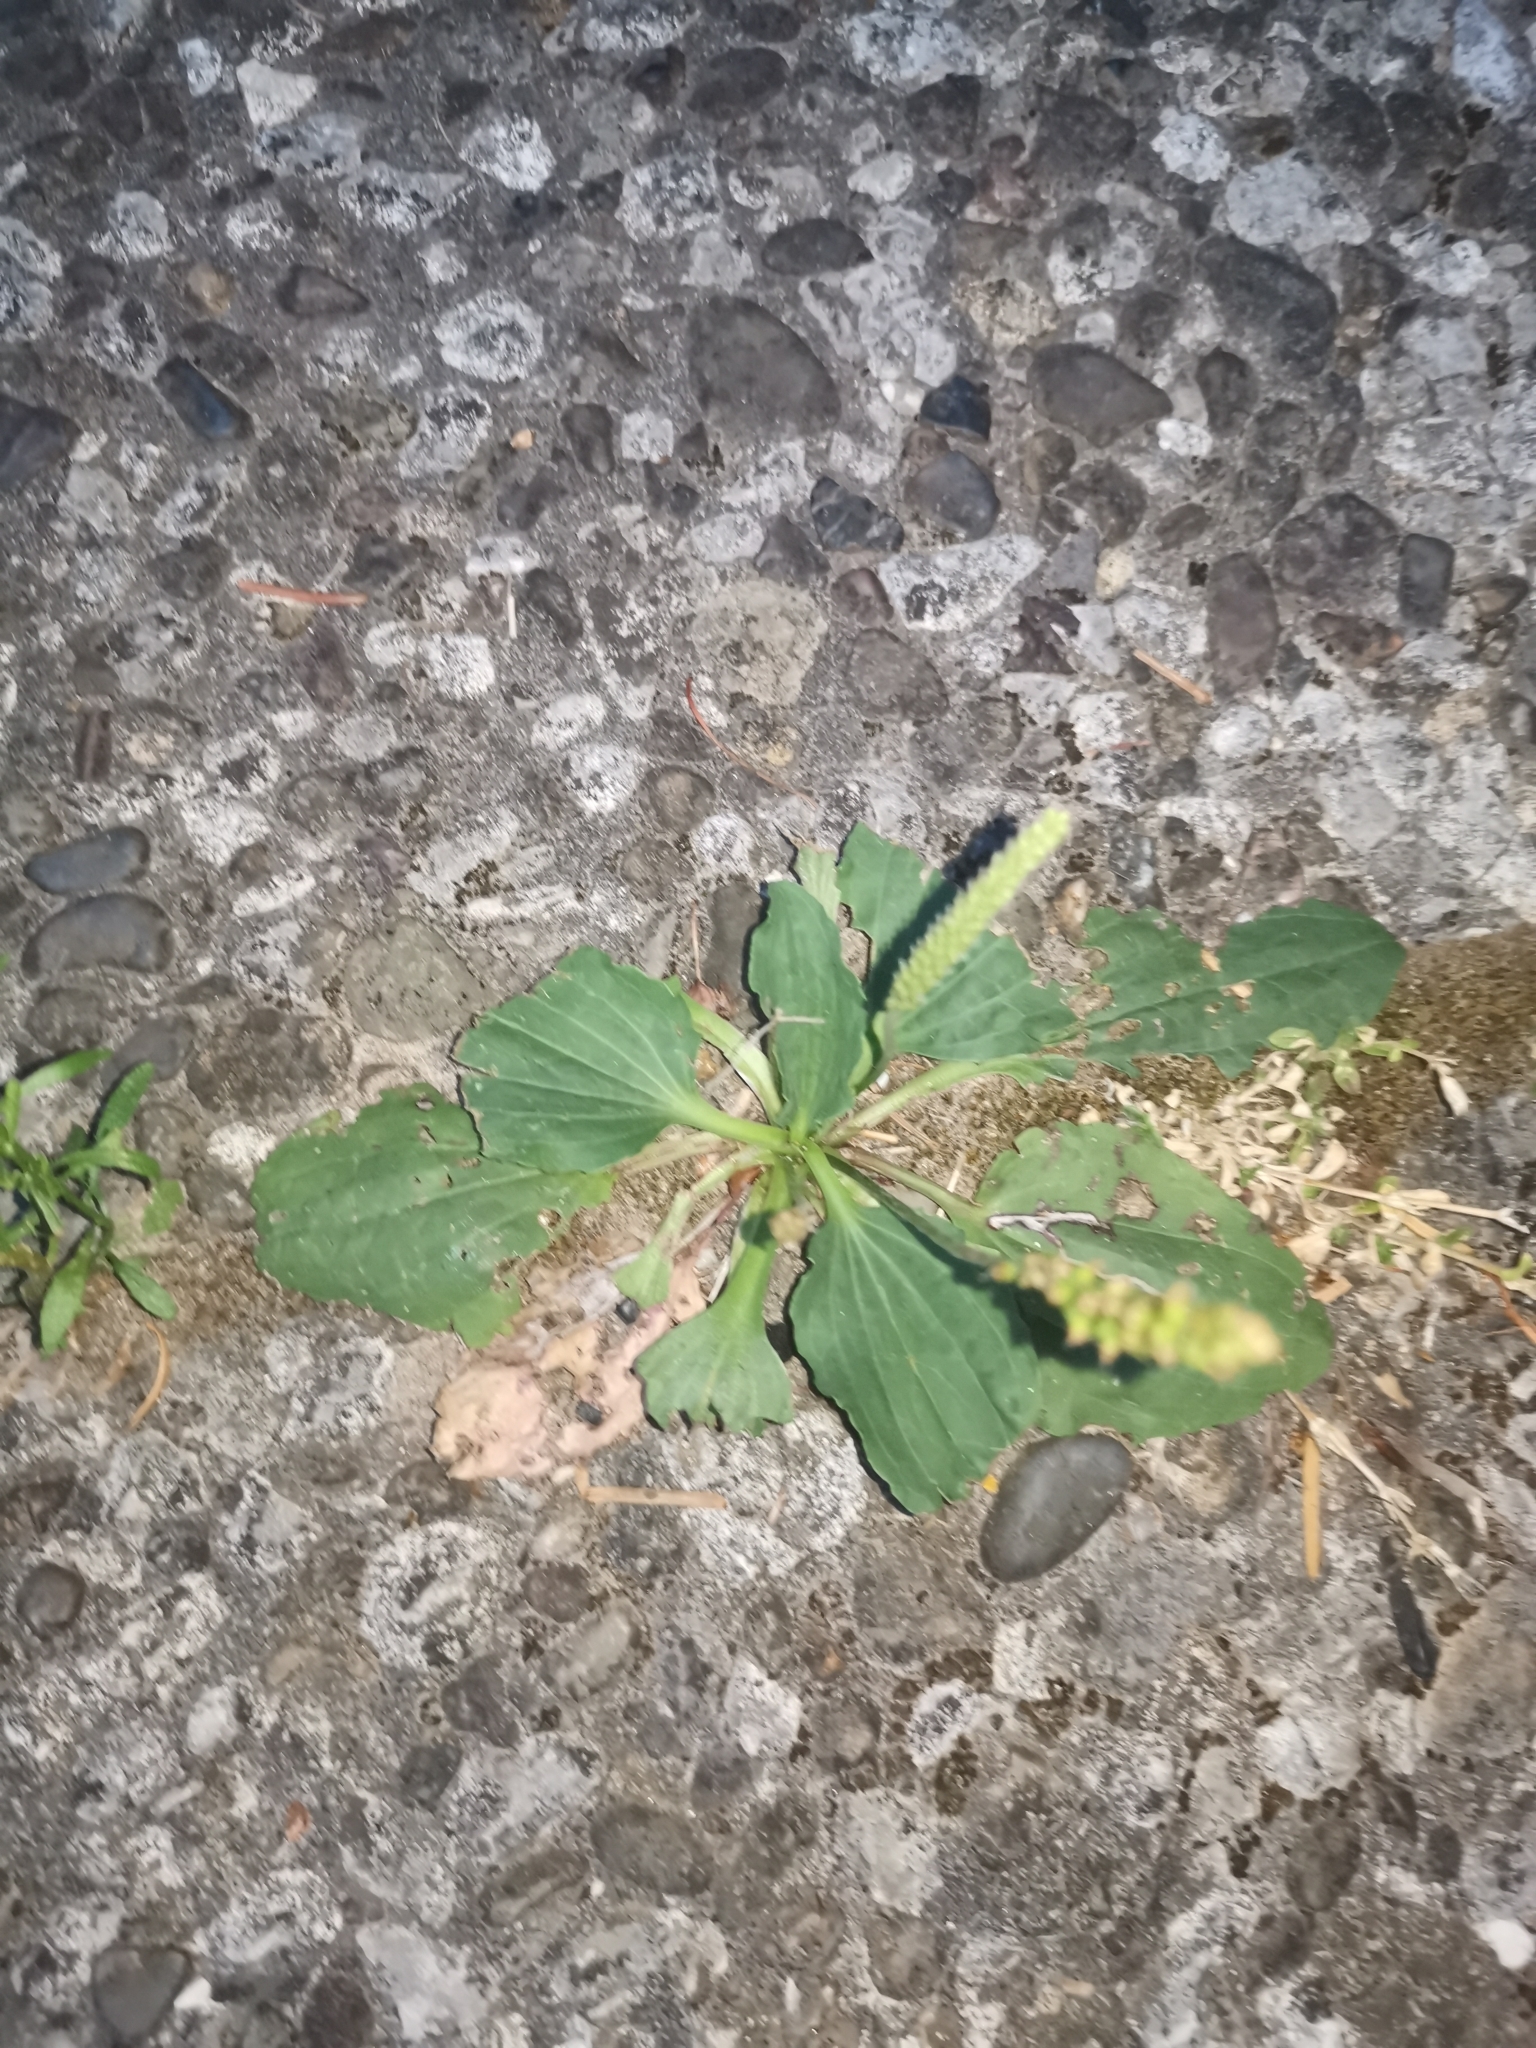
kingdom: Plantae
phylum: Tracheophyta
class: Magnoliopsida
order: Lamiales
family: Plantaginaceae
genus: Plantago
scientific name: Plantago major
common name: Common plantain
